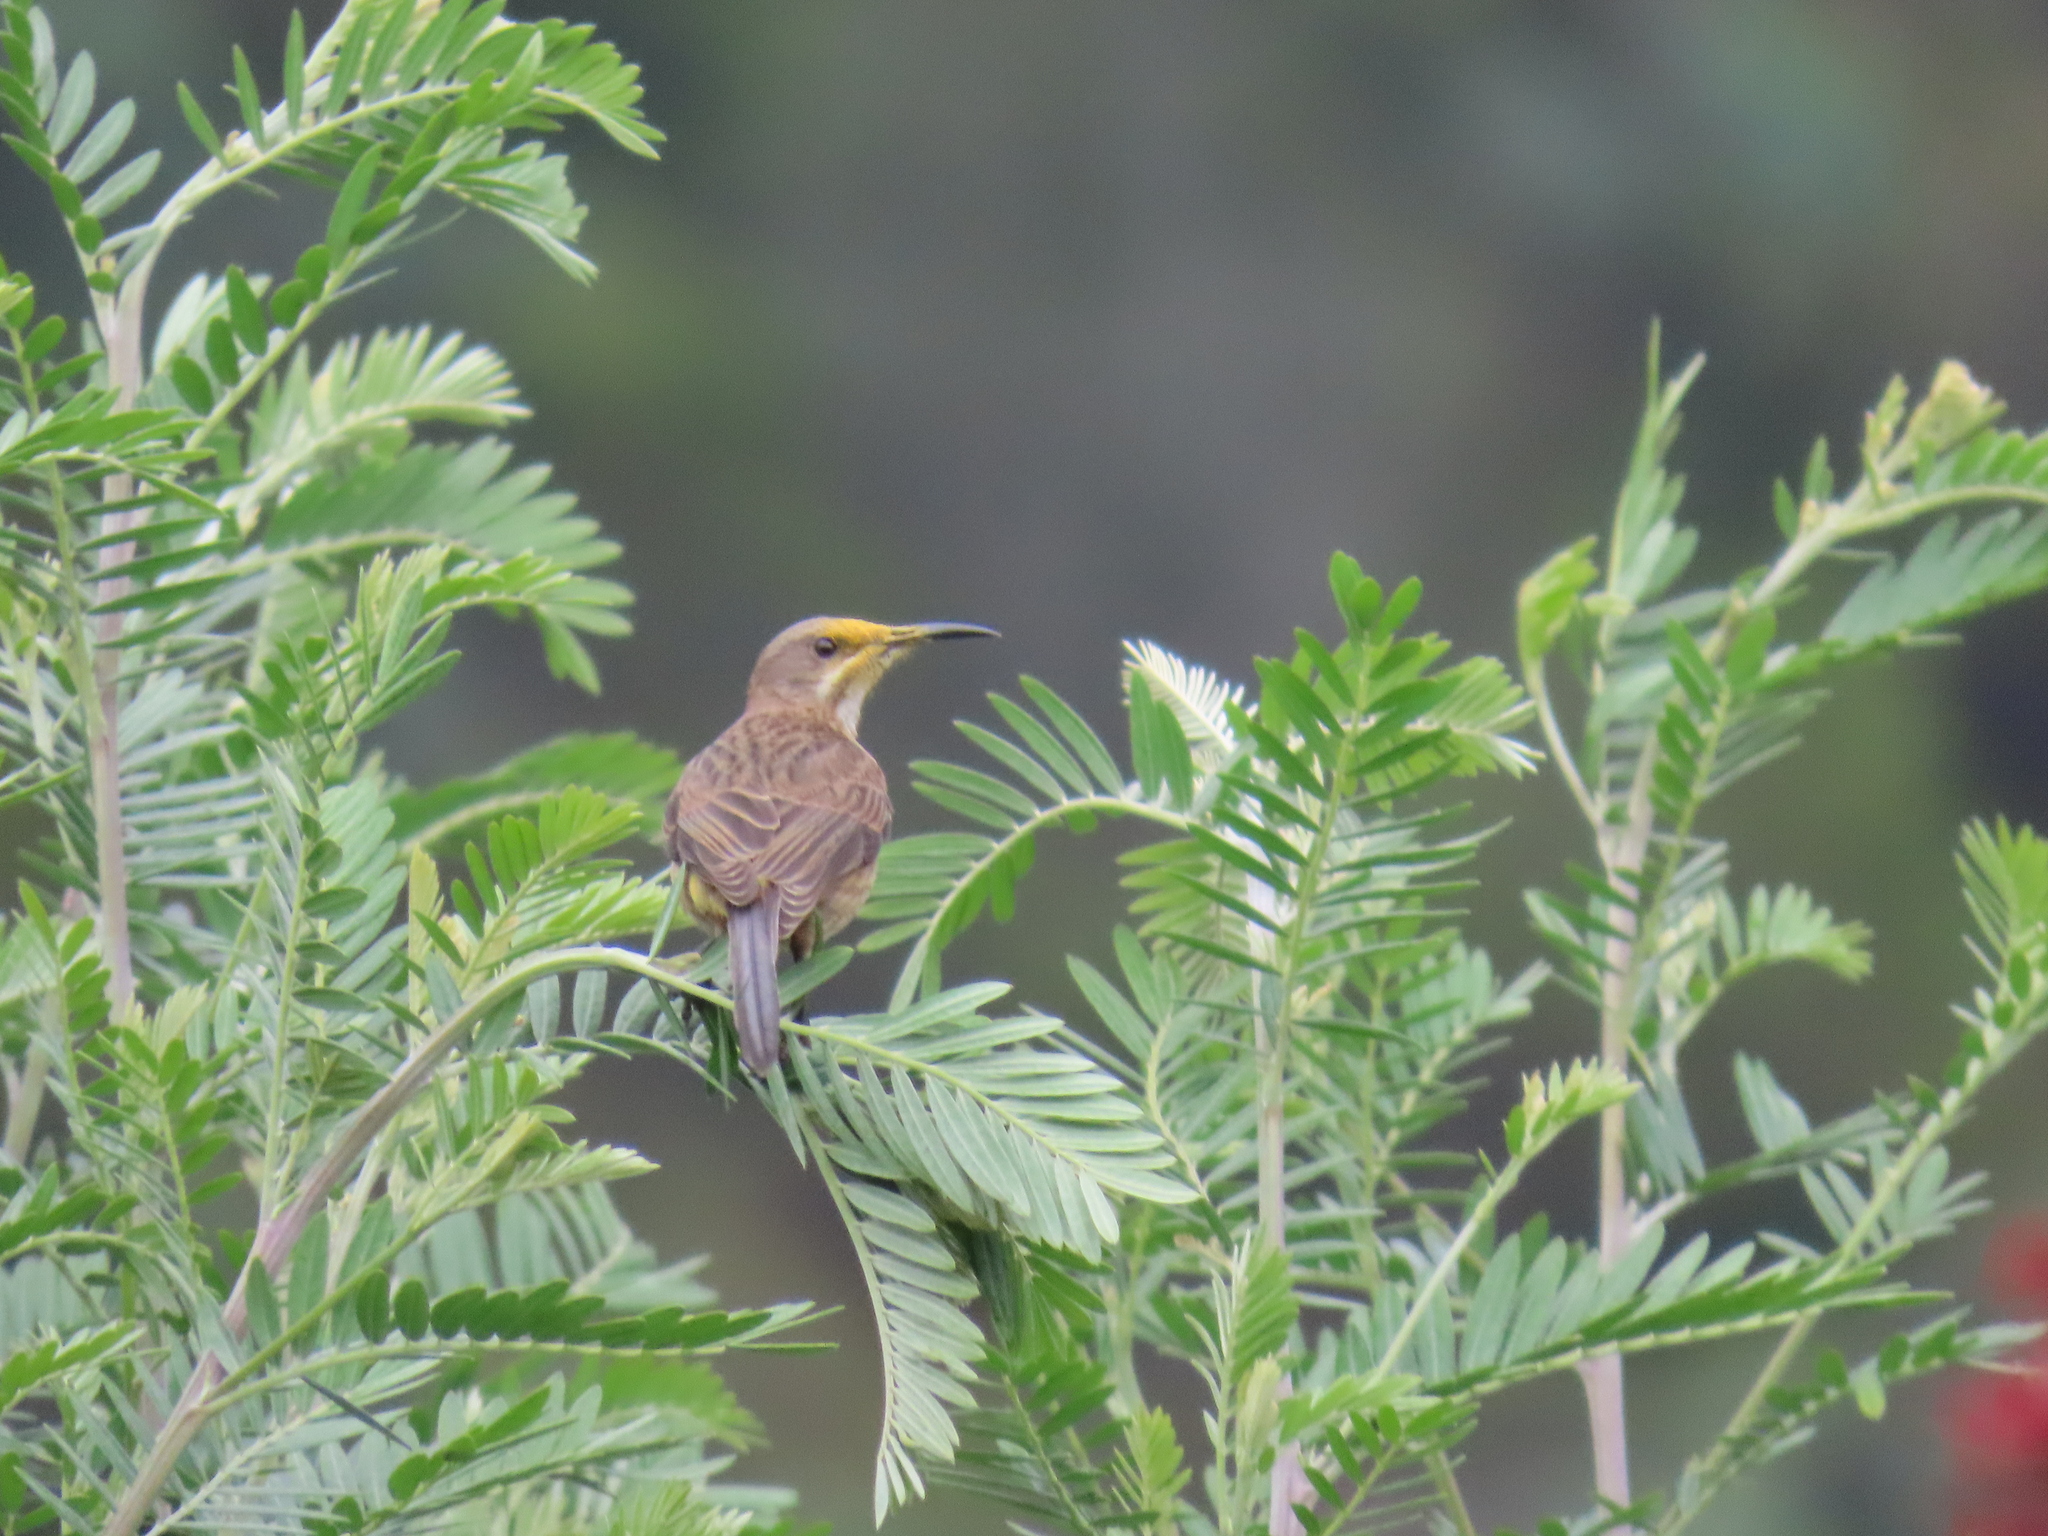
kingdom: Animalia
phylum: Chordata
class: Aves
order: Passeriformes
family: Promeropidae
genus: Promerops
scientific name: Promerops cafer
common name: Cape sugarbird
